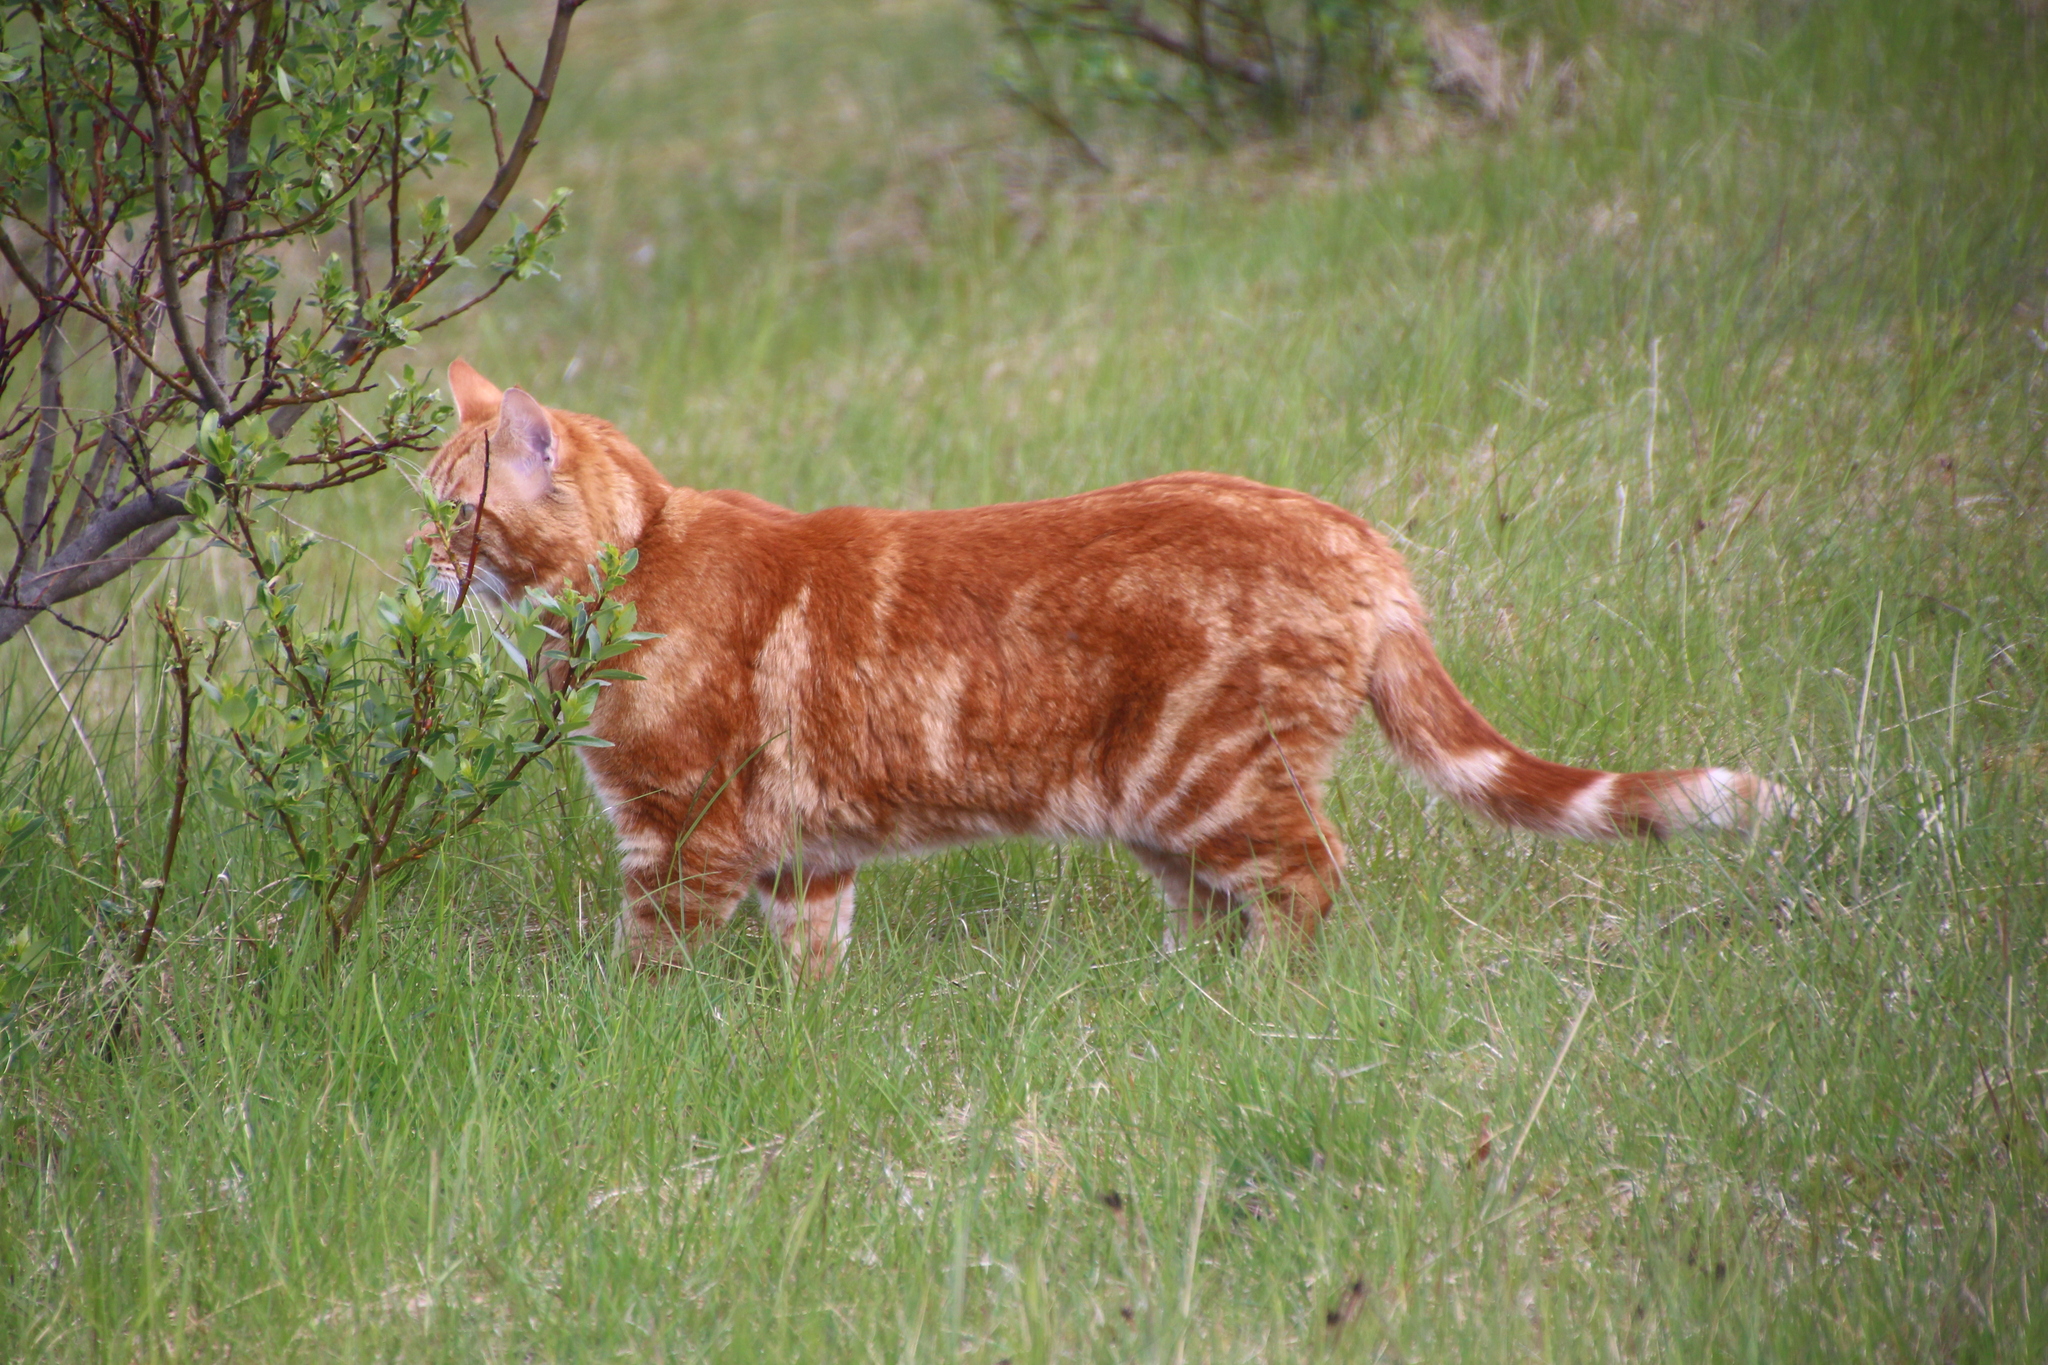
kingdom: Animalia
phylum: Chordata
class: Mammalia
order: Carnivora
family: Felidae
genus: Felis
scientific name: Felis catus
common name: Domestic cat
